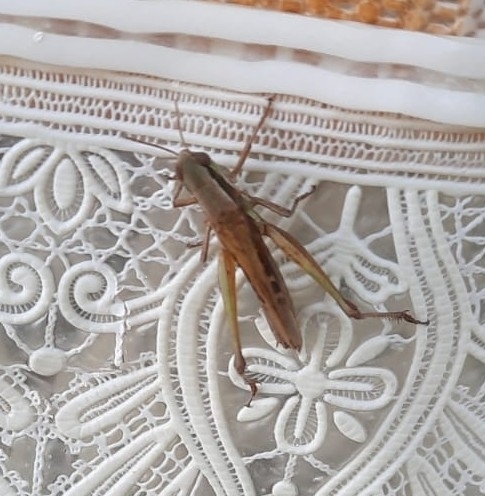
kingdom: Animalia
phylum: Arthropoda
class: Insecta
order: Orthoptera
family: Acrididae
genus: Spathosternum
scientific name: Spathosternum prasiniferum
